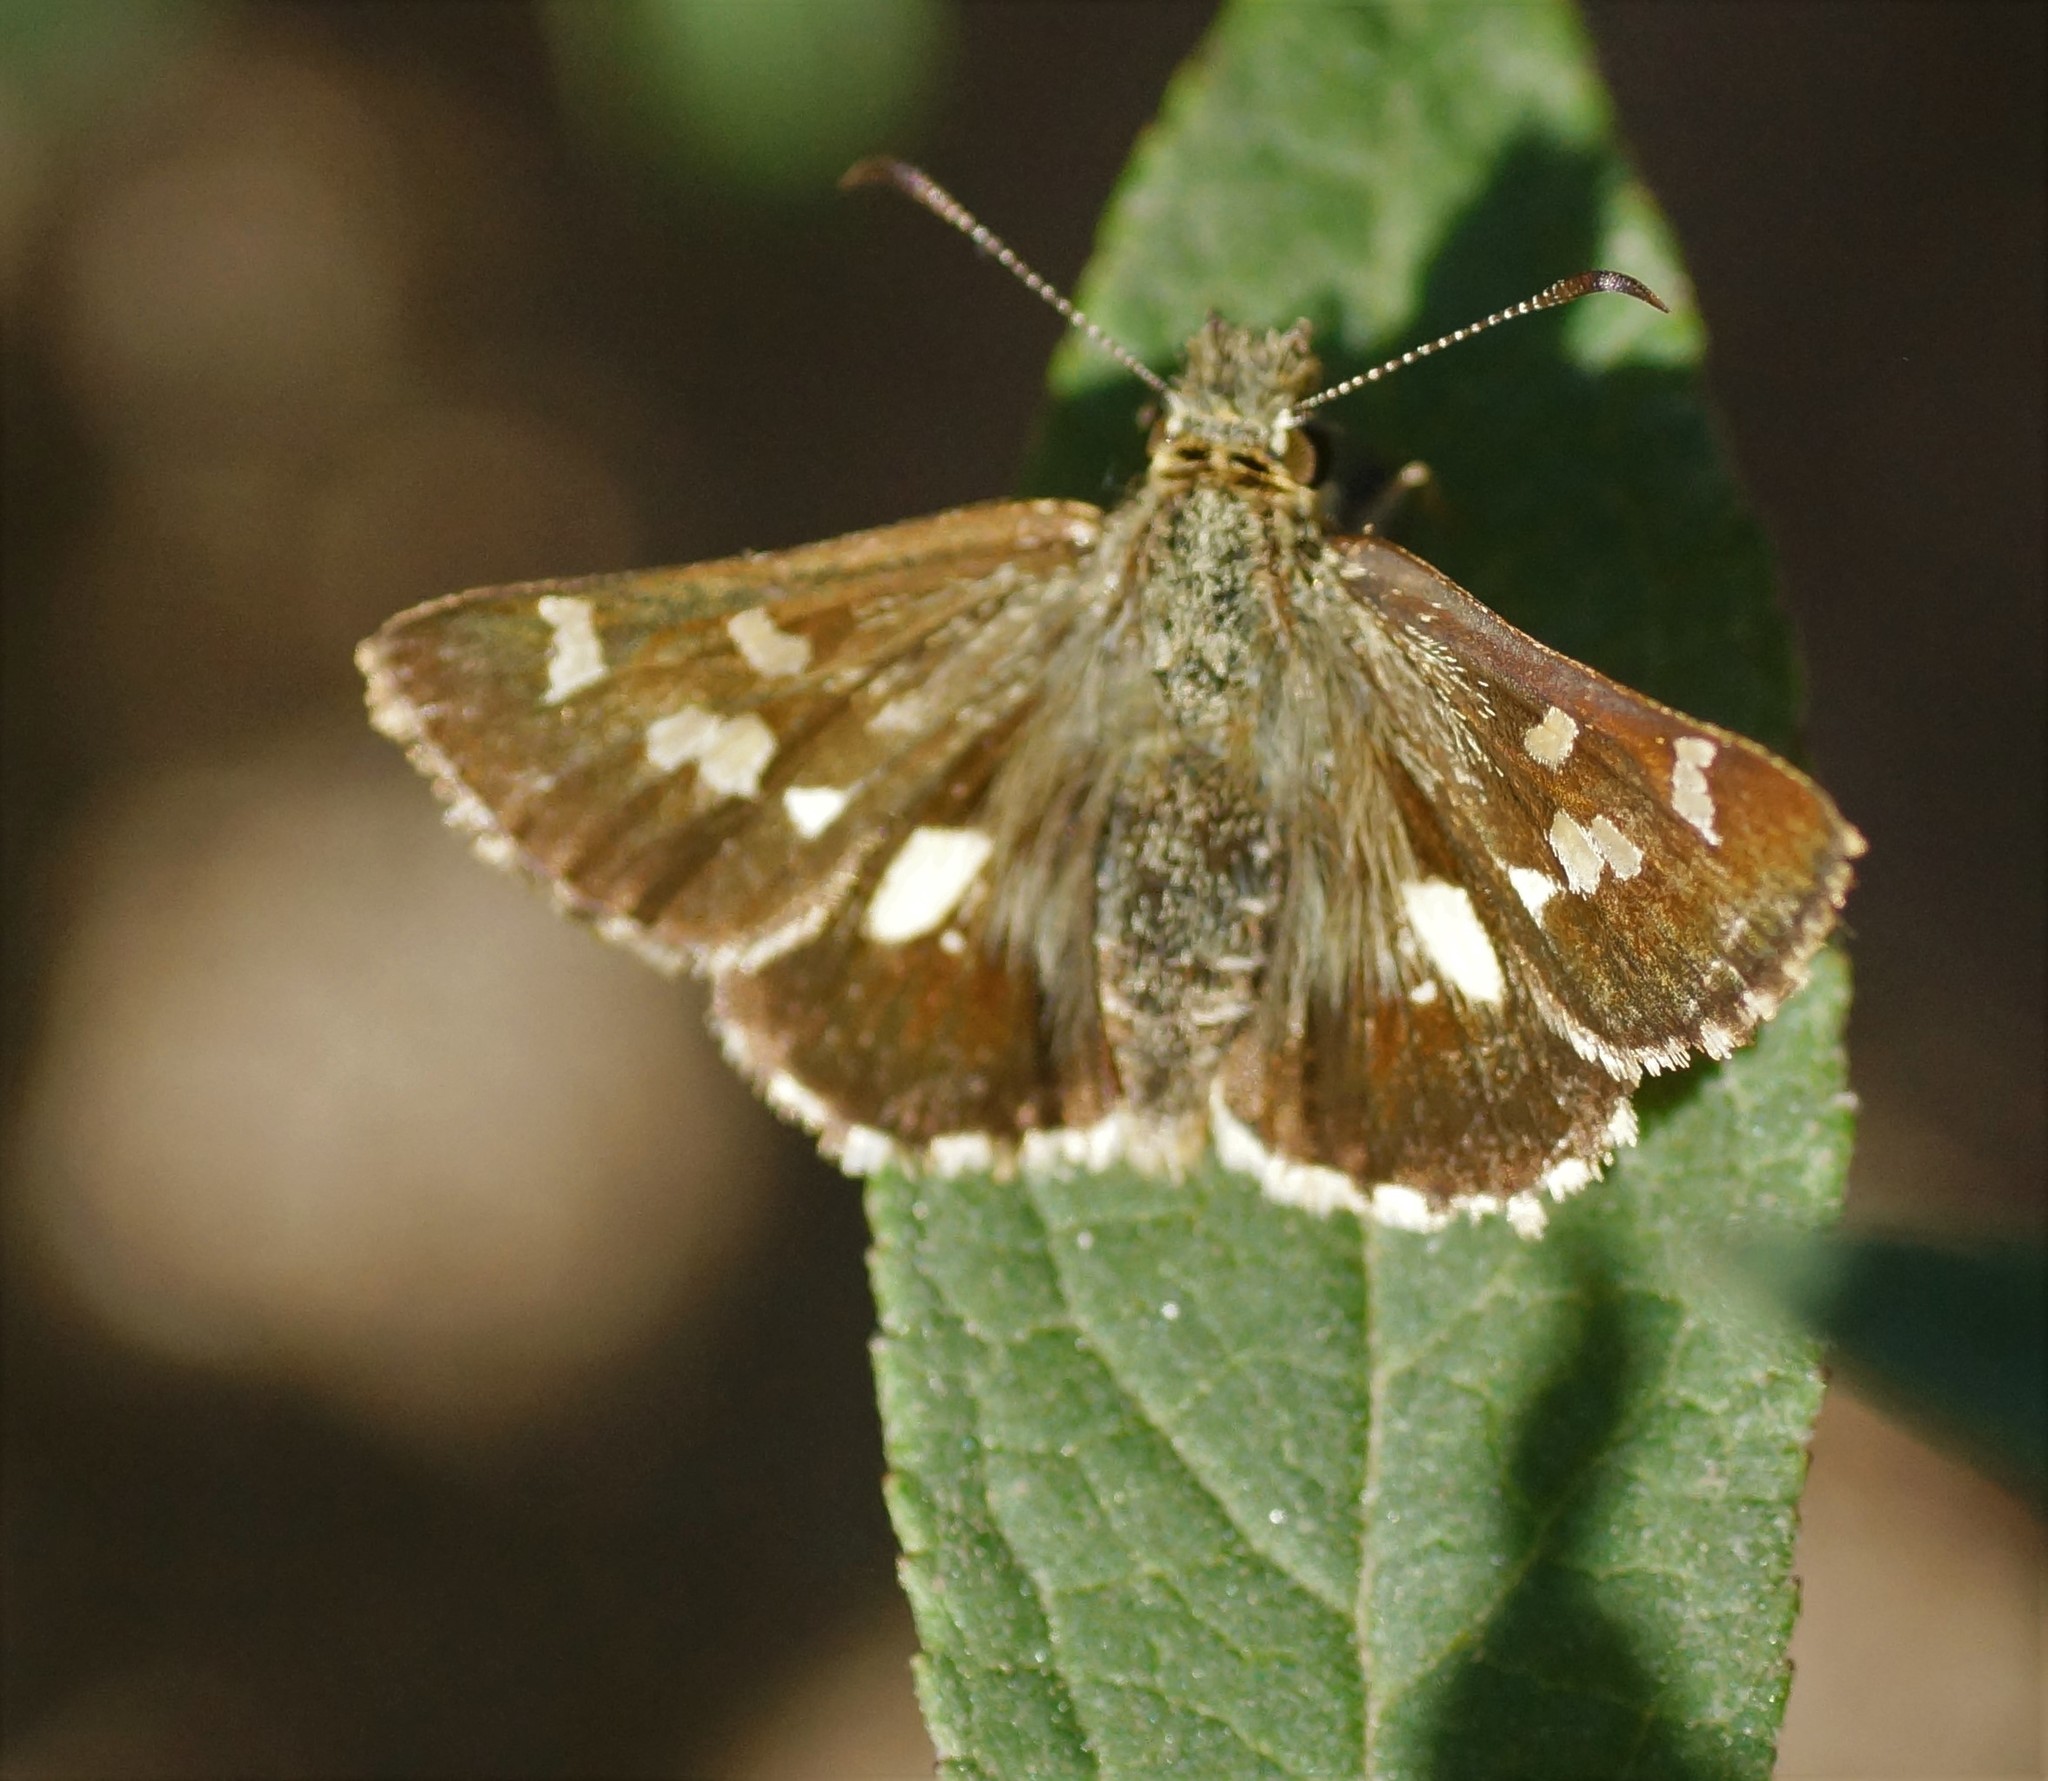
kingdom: Animalia
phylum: Arthropoda
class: Insecta
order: Lepidoptera
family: Hesperiidae
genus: Dispar
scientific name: Dispar compacta
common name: Barred skipper
